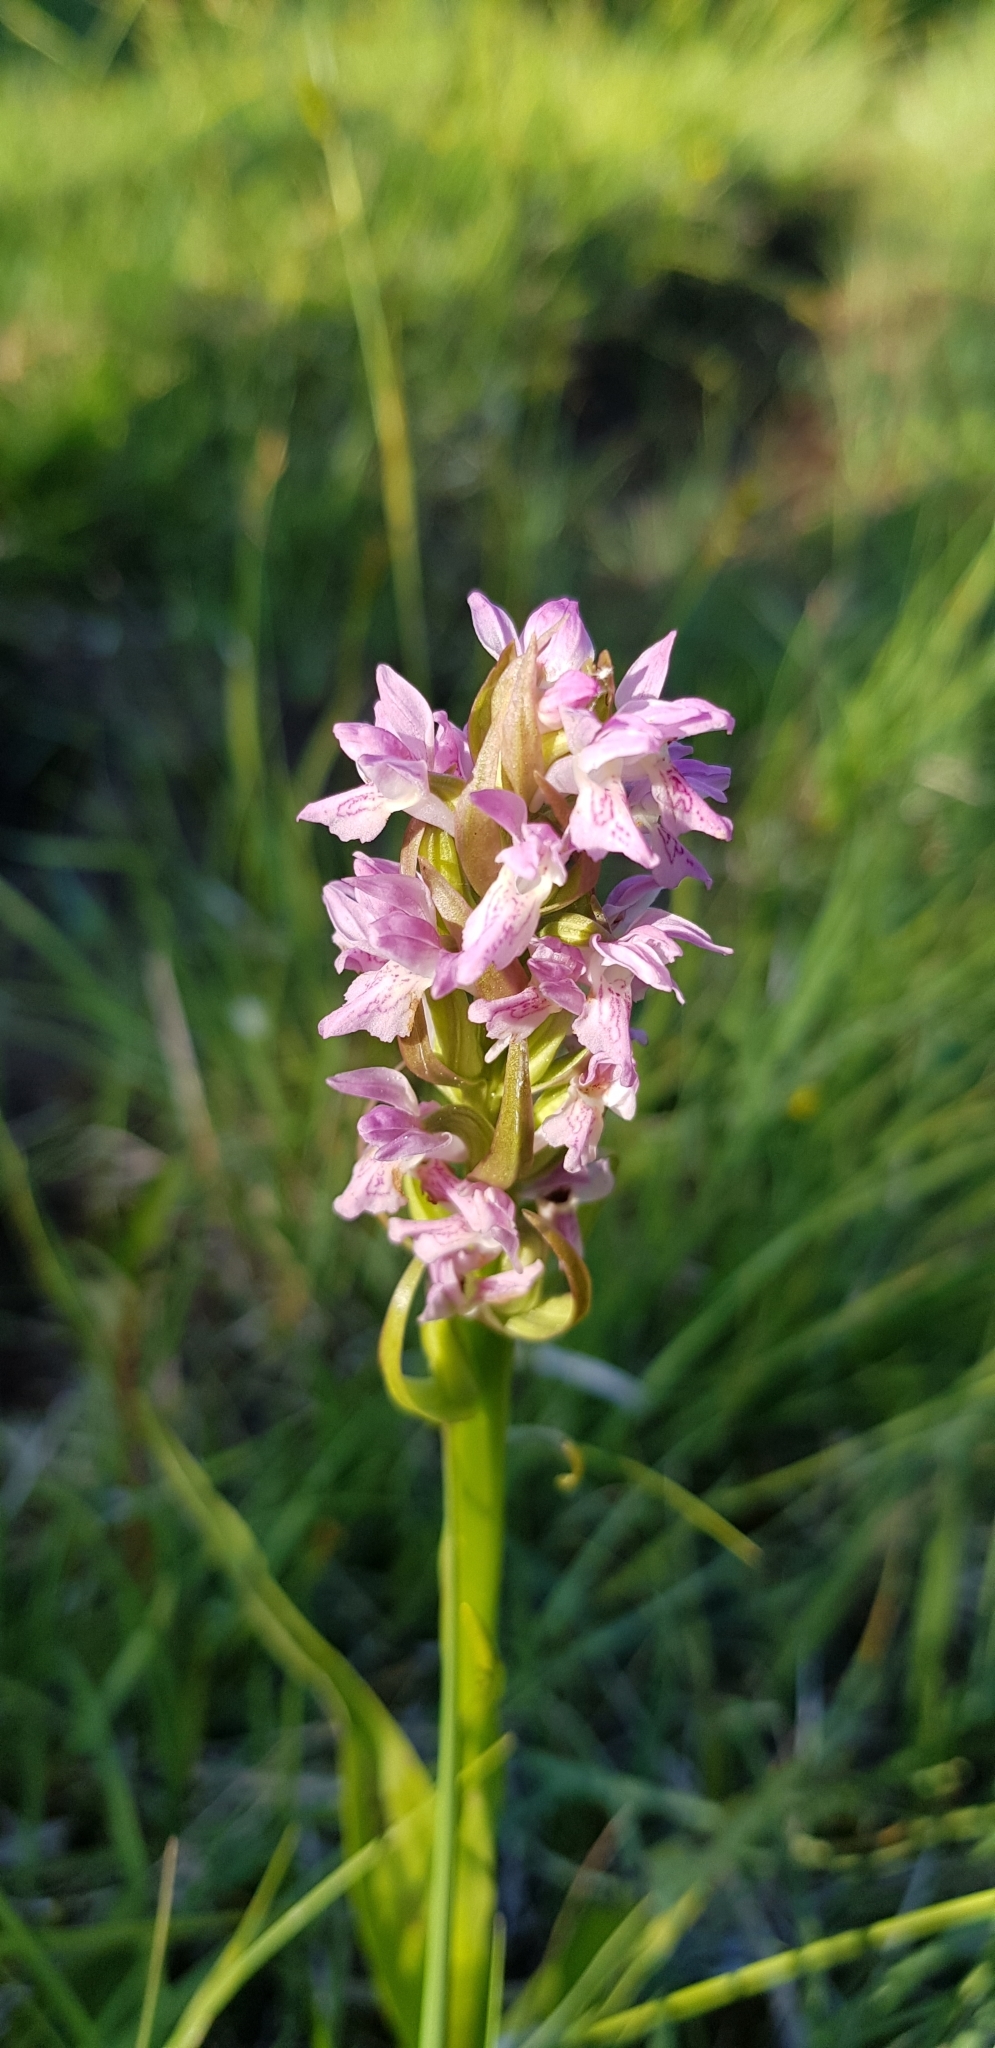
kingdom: Plantae
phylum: Tracheophyta
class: Liliopsida
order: Asparagales
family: Orchidaceae
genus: Dactylorhiza
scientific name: Dactylorhiza incarnata
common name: Early marsh-orchid
